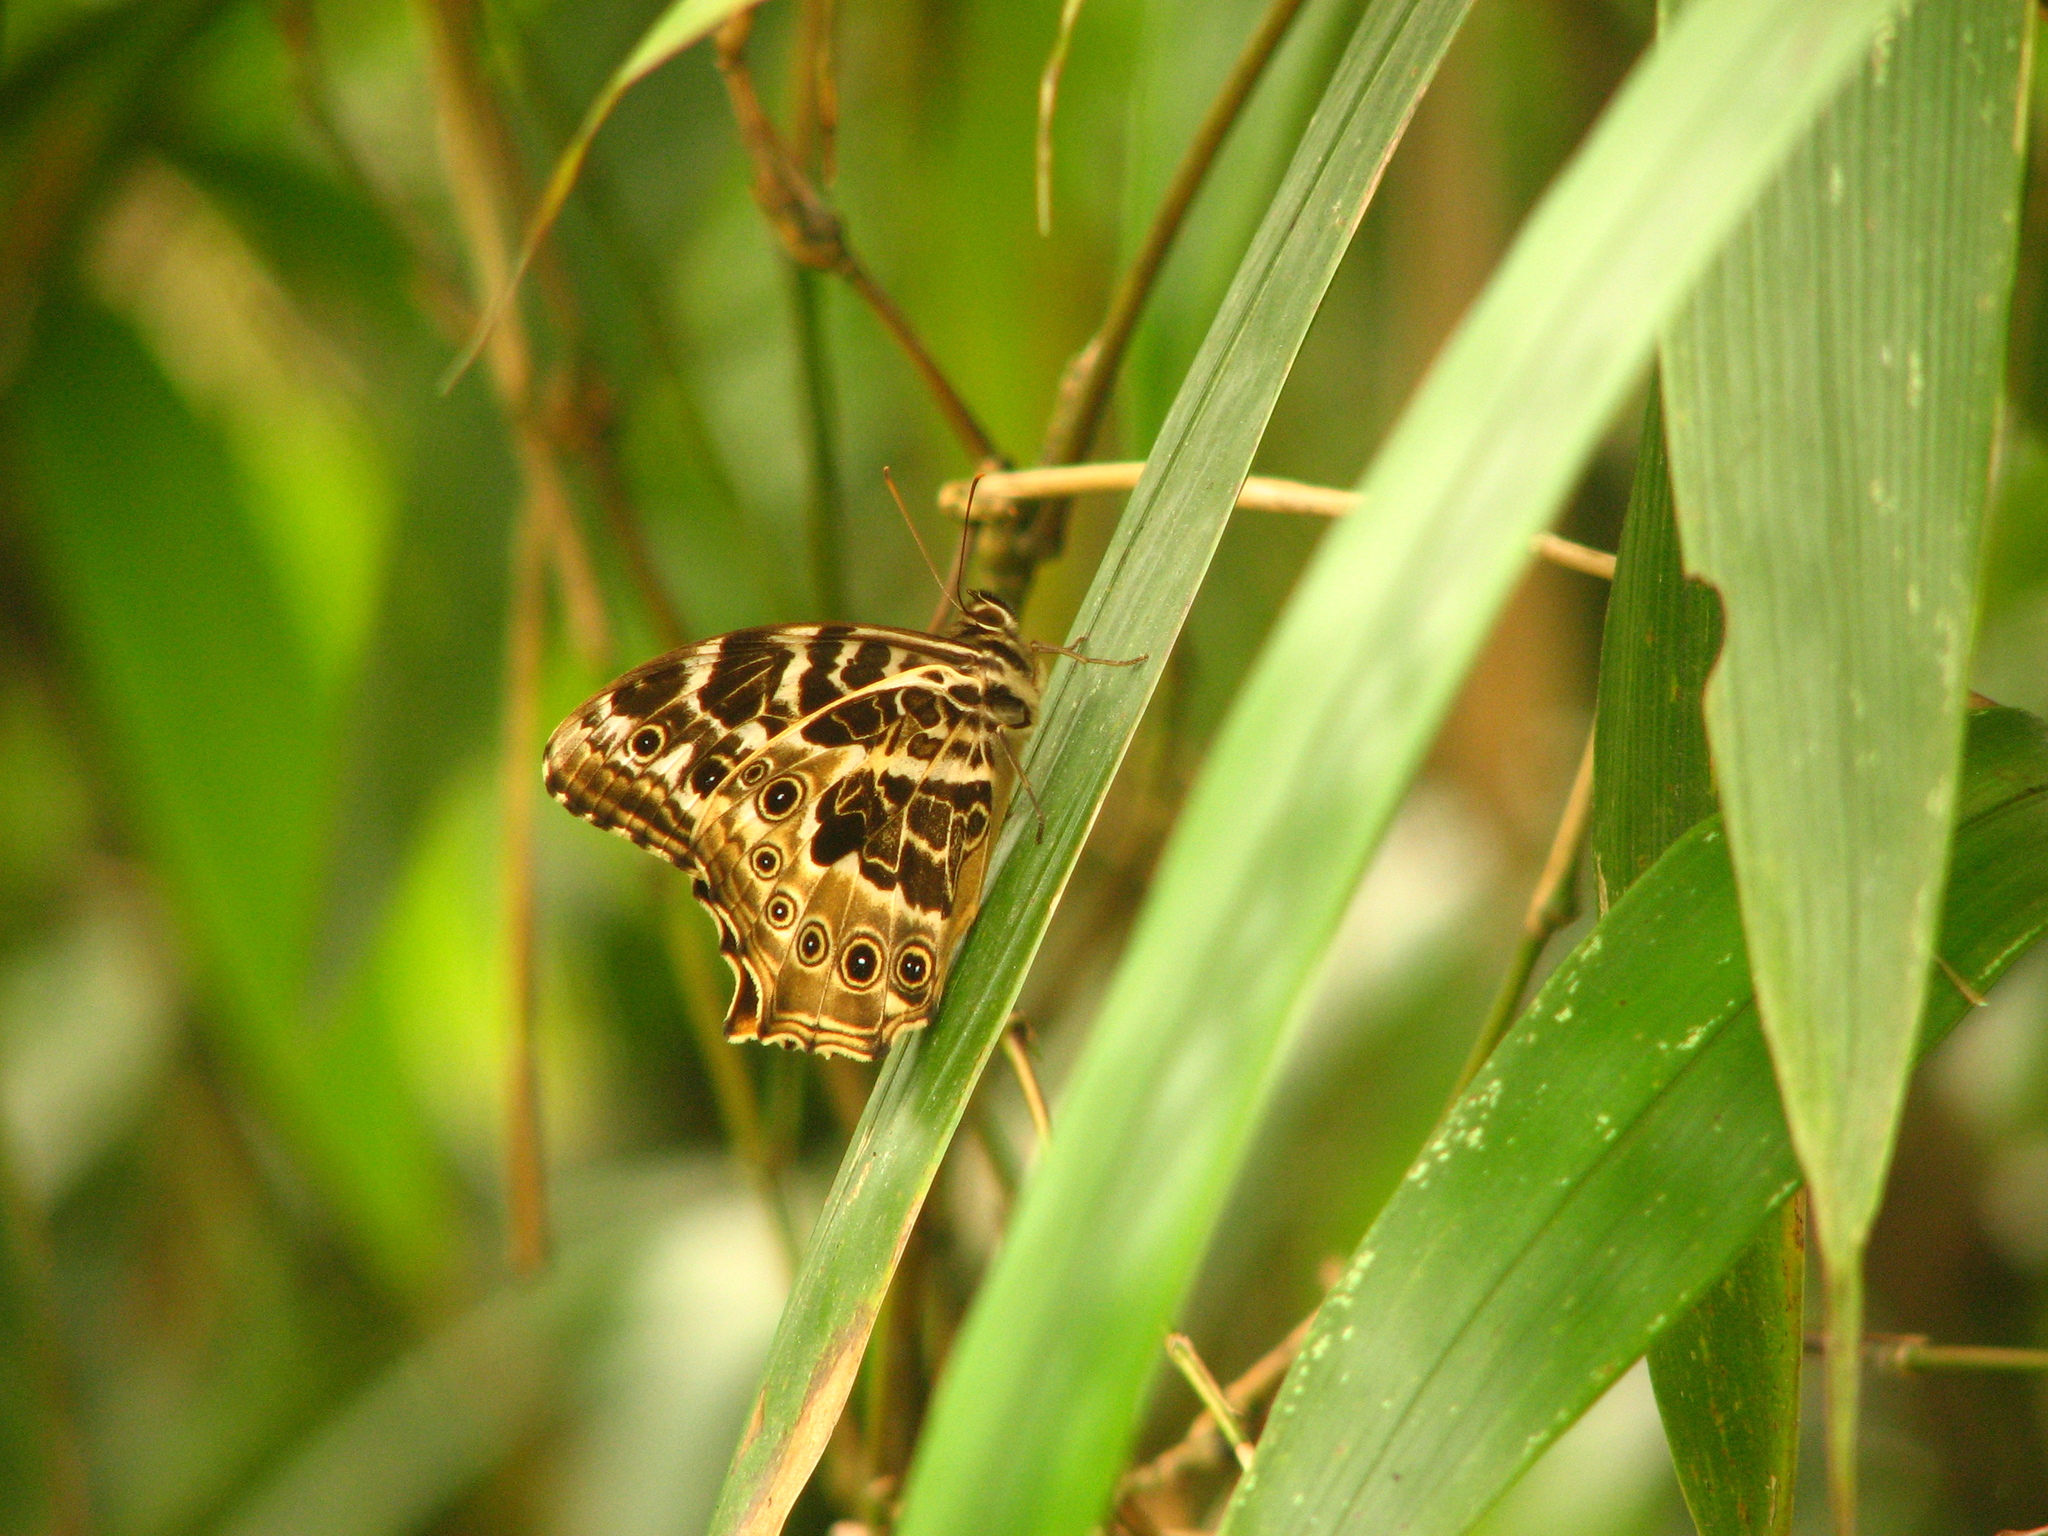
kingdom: Animalia
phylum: Arthropoda
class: Insecta
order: Lepidoptera
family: Nymphalidae
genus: Neope
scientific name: Neope armandii
